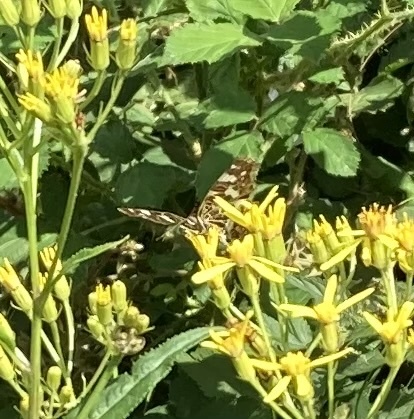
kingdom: Animalia
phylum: Arthropoda
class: Insecta
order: Lepidoptera
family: Nymphalidae
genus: Araschnia
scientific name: Araschnia levana
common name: Map butterfly
